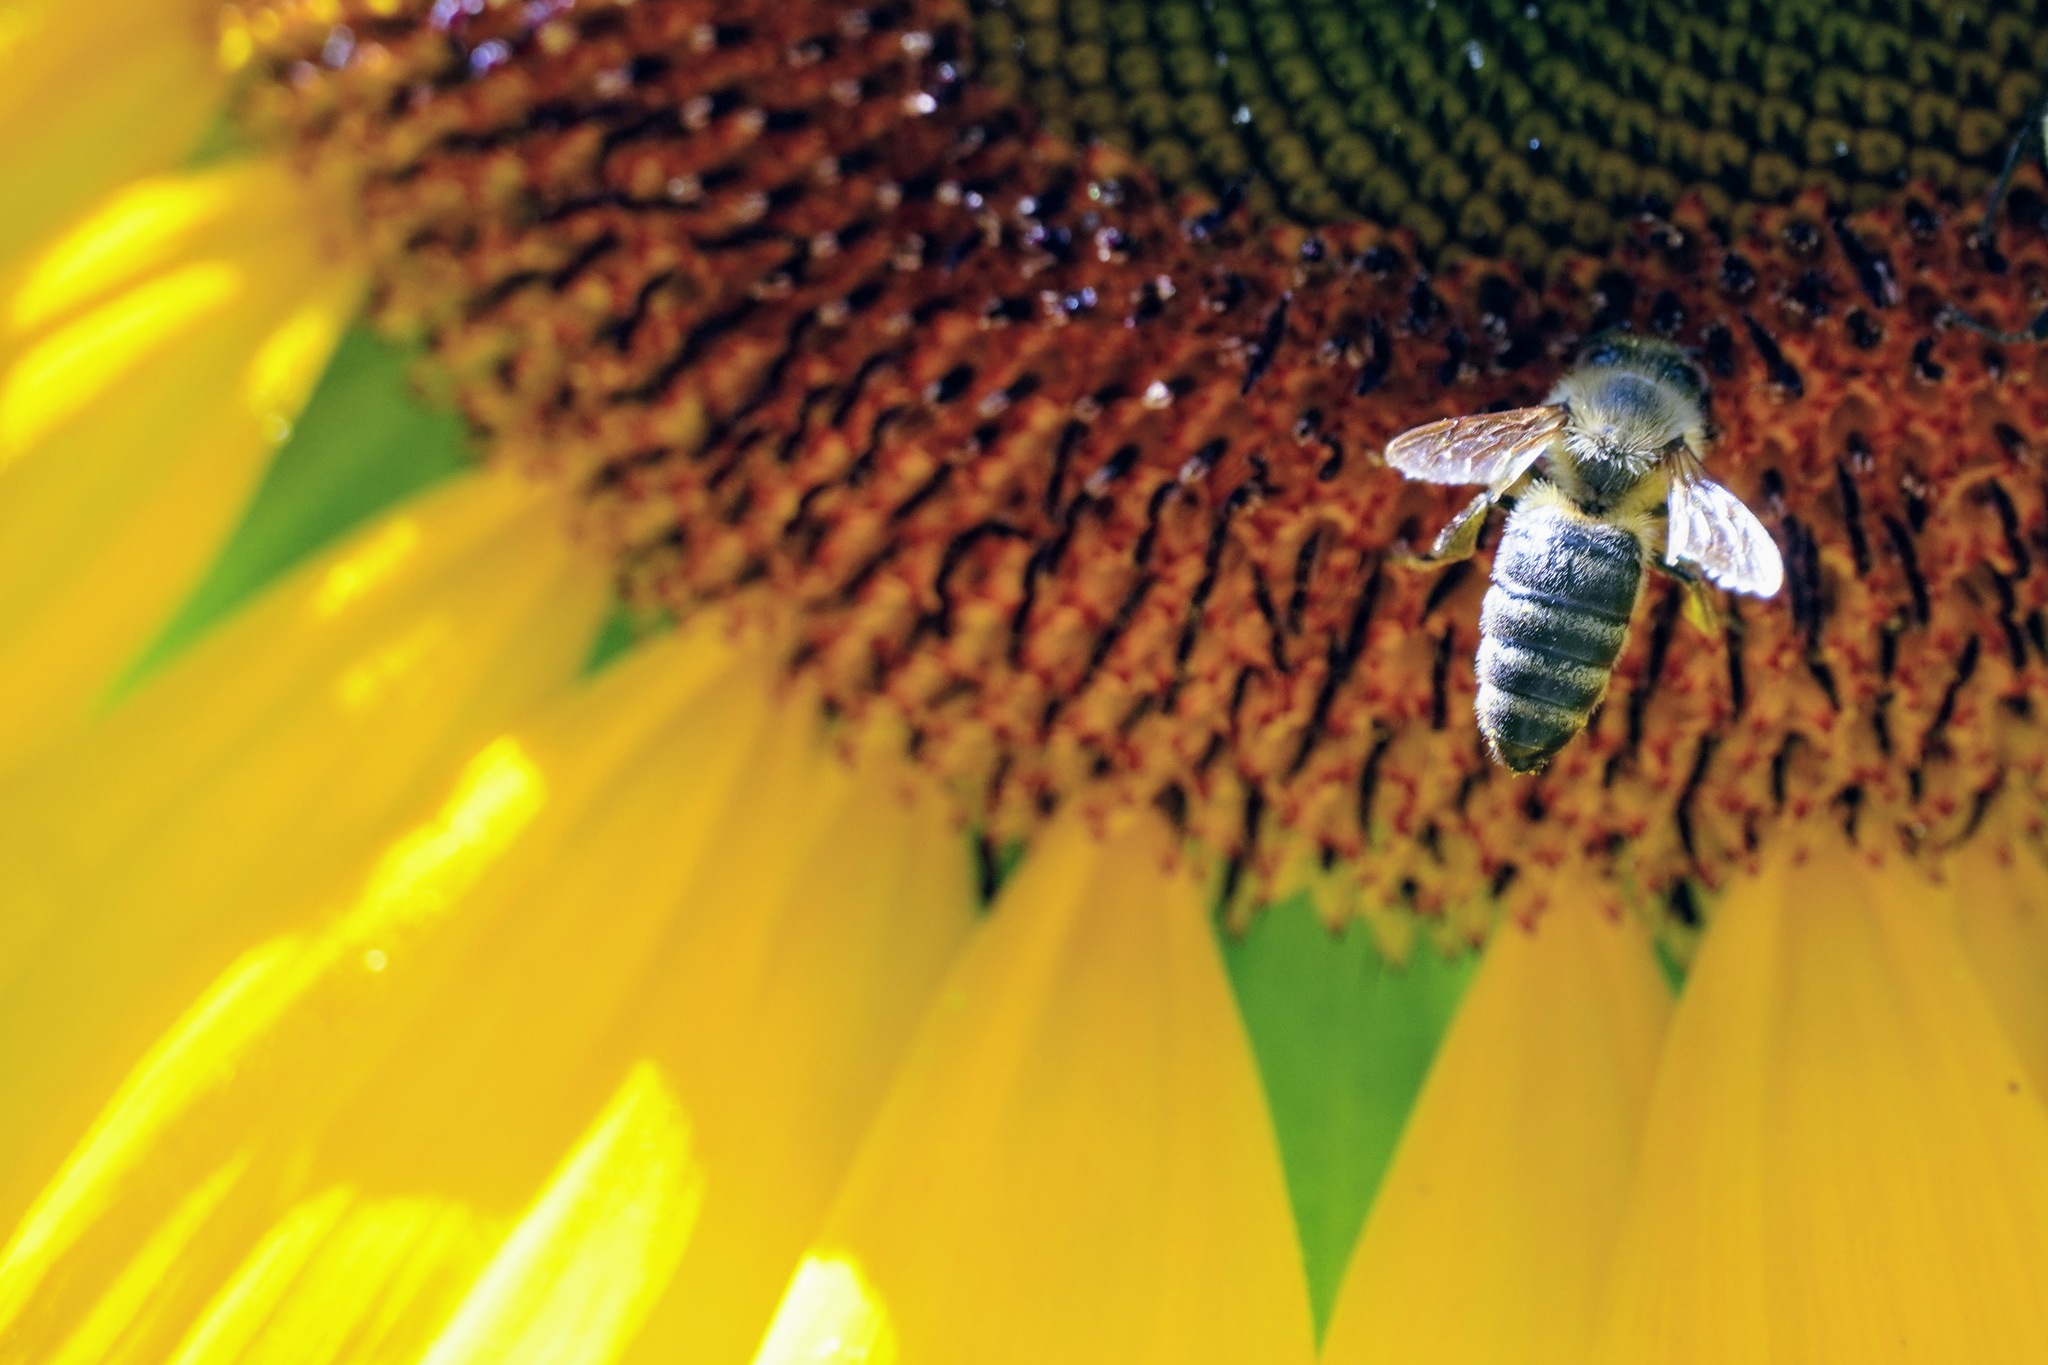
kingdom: Animalia
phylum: Arthropoda
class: Insecta
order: Hymenoptera
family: Apidae
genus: Apis
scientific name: Apis mellifera
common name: Honey bee
